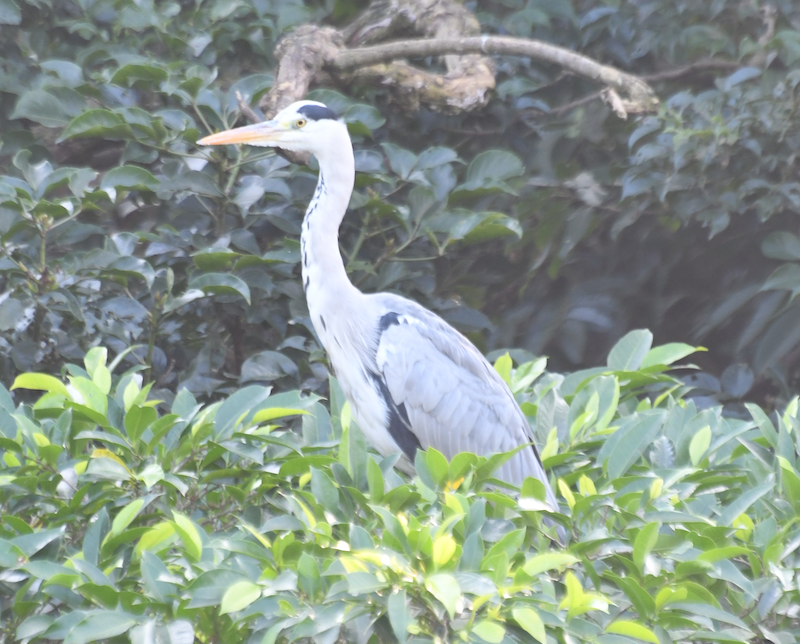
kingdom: Animalia
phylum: Chordata
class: Aves
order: Pelecaniformes
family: Ardeidae
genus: Ardea
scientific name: Ardea cinerea
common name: Grey heron
